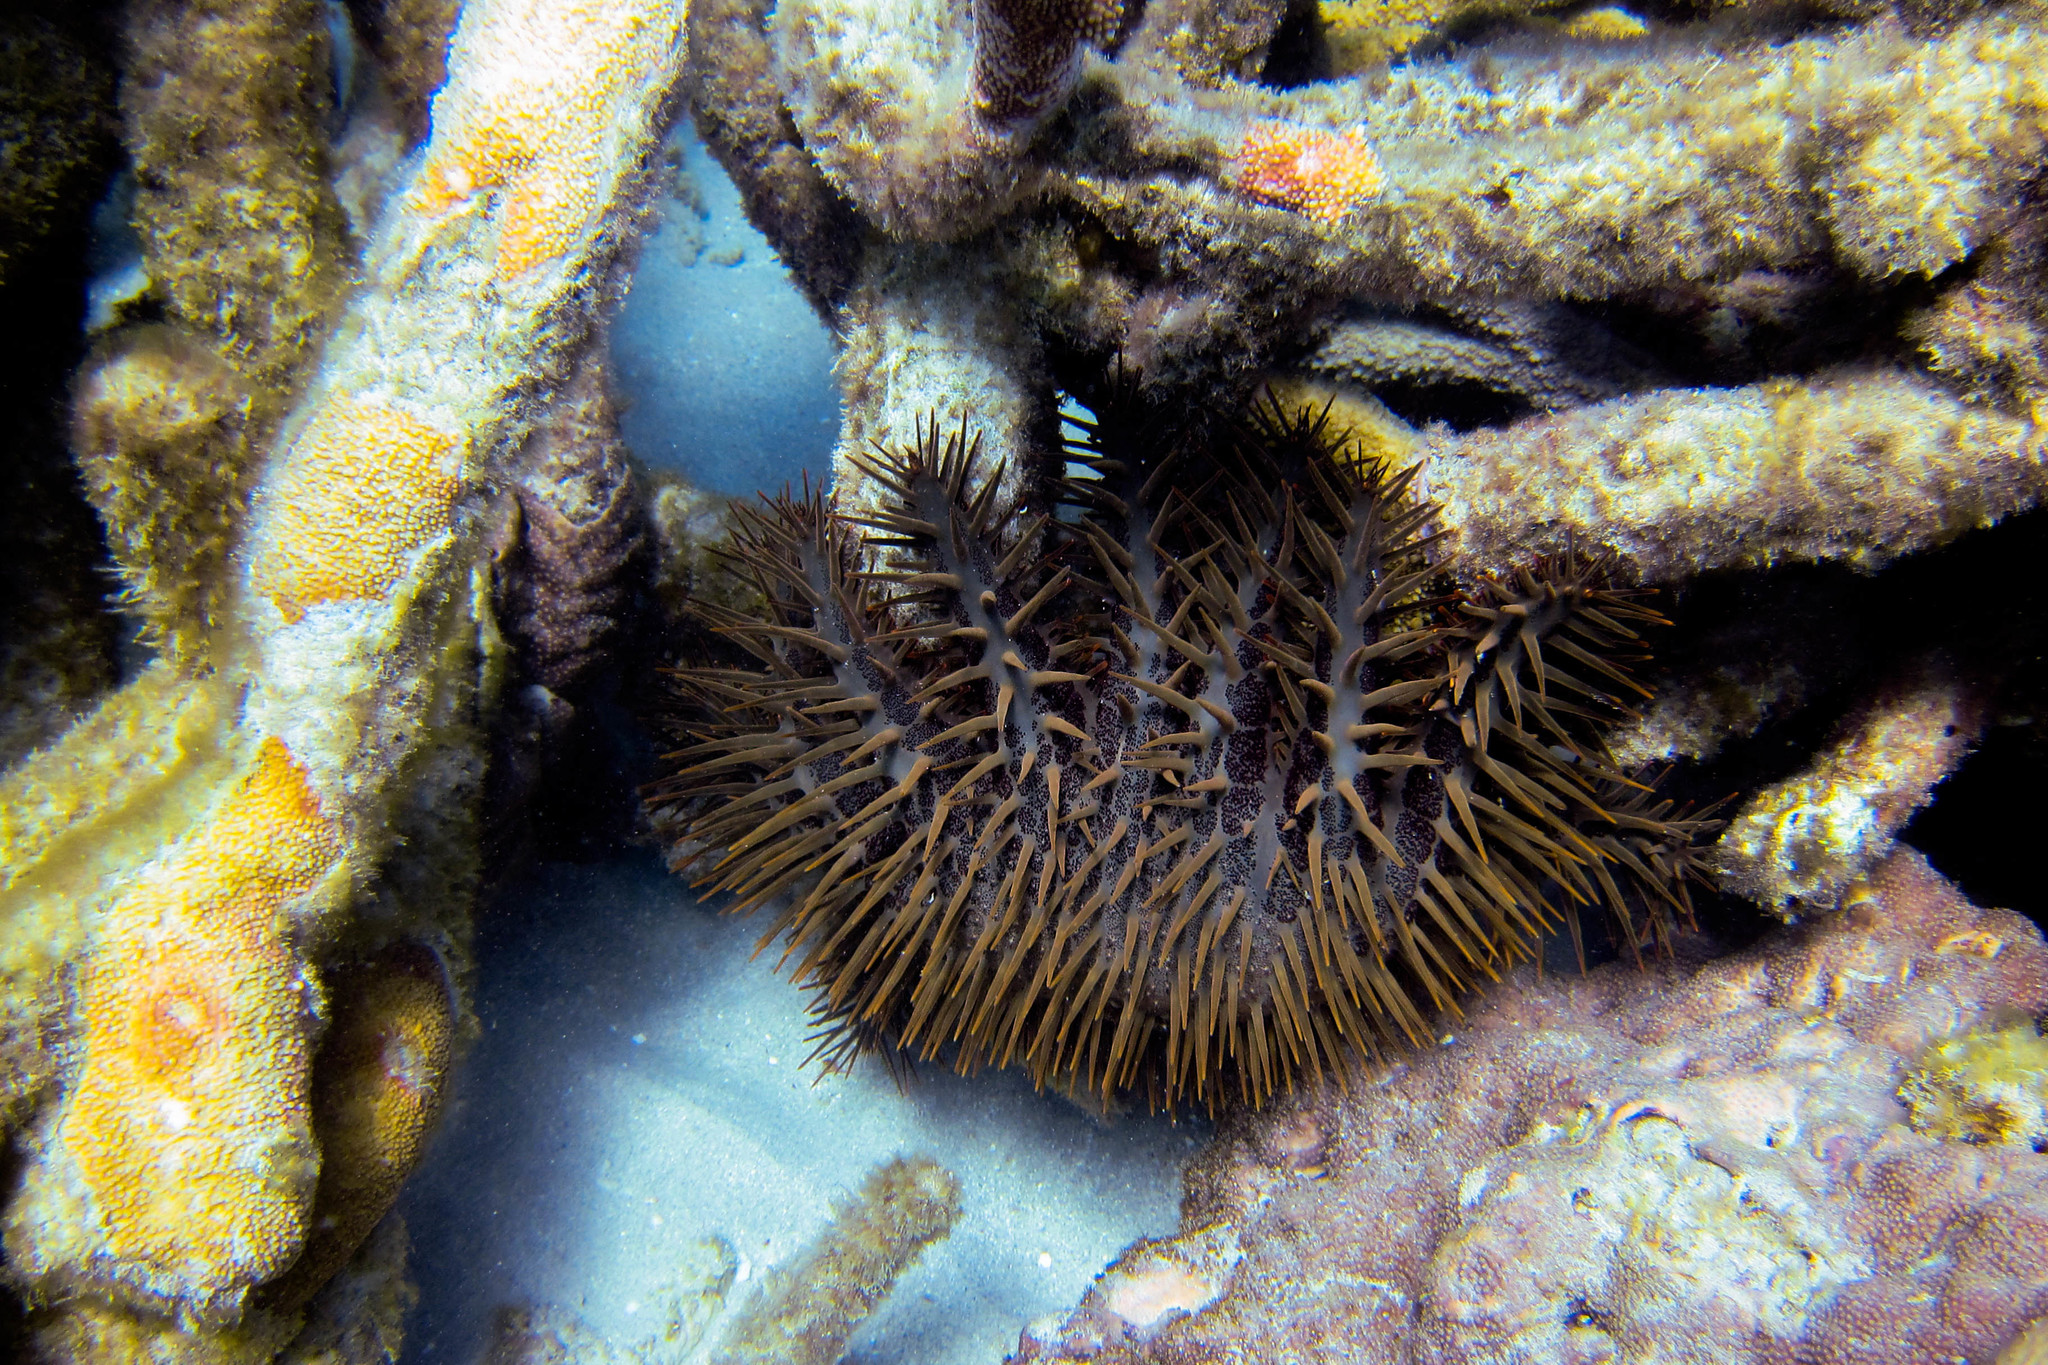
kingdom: Animalia
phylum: Echinodermata
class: Asteroidea
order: Valvatida
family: Acanthasteridae
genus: Acanthaster
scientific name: Acanthaster planci
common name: Crown-of-thorns
